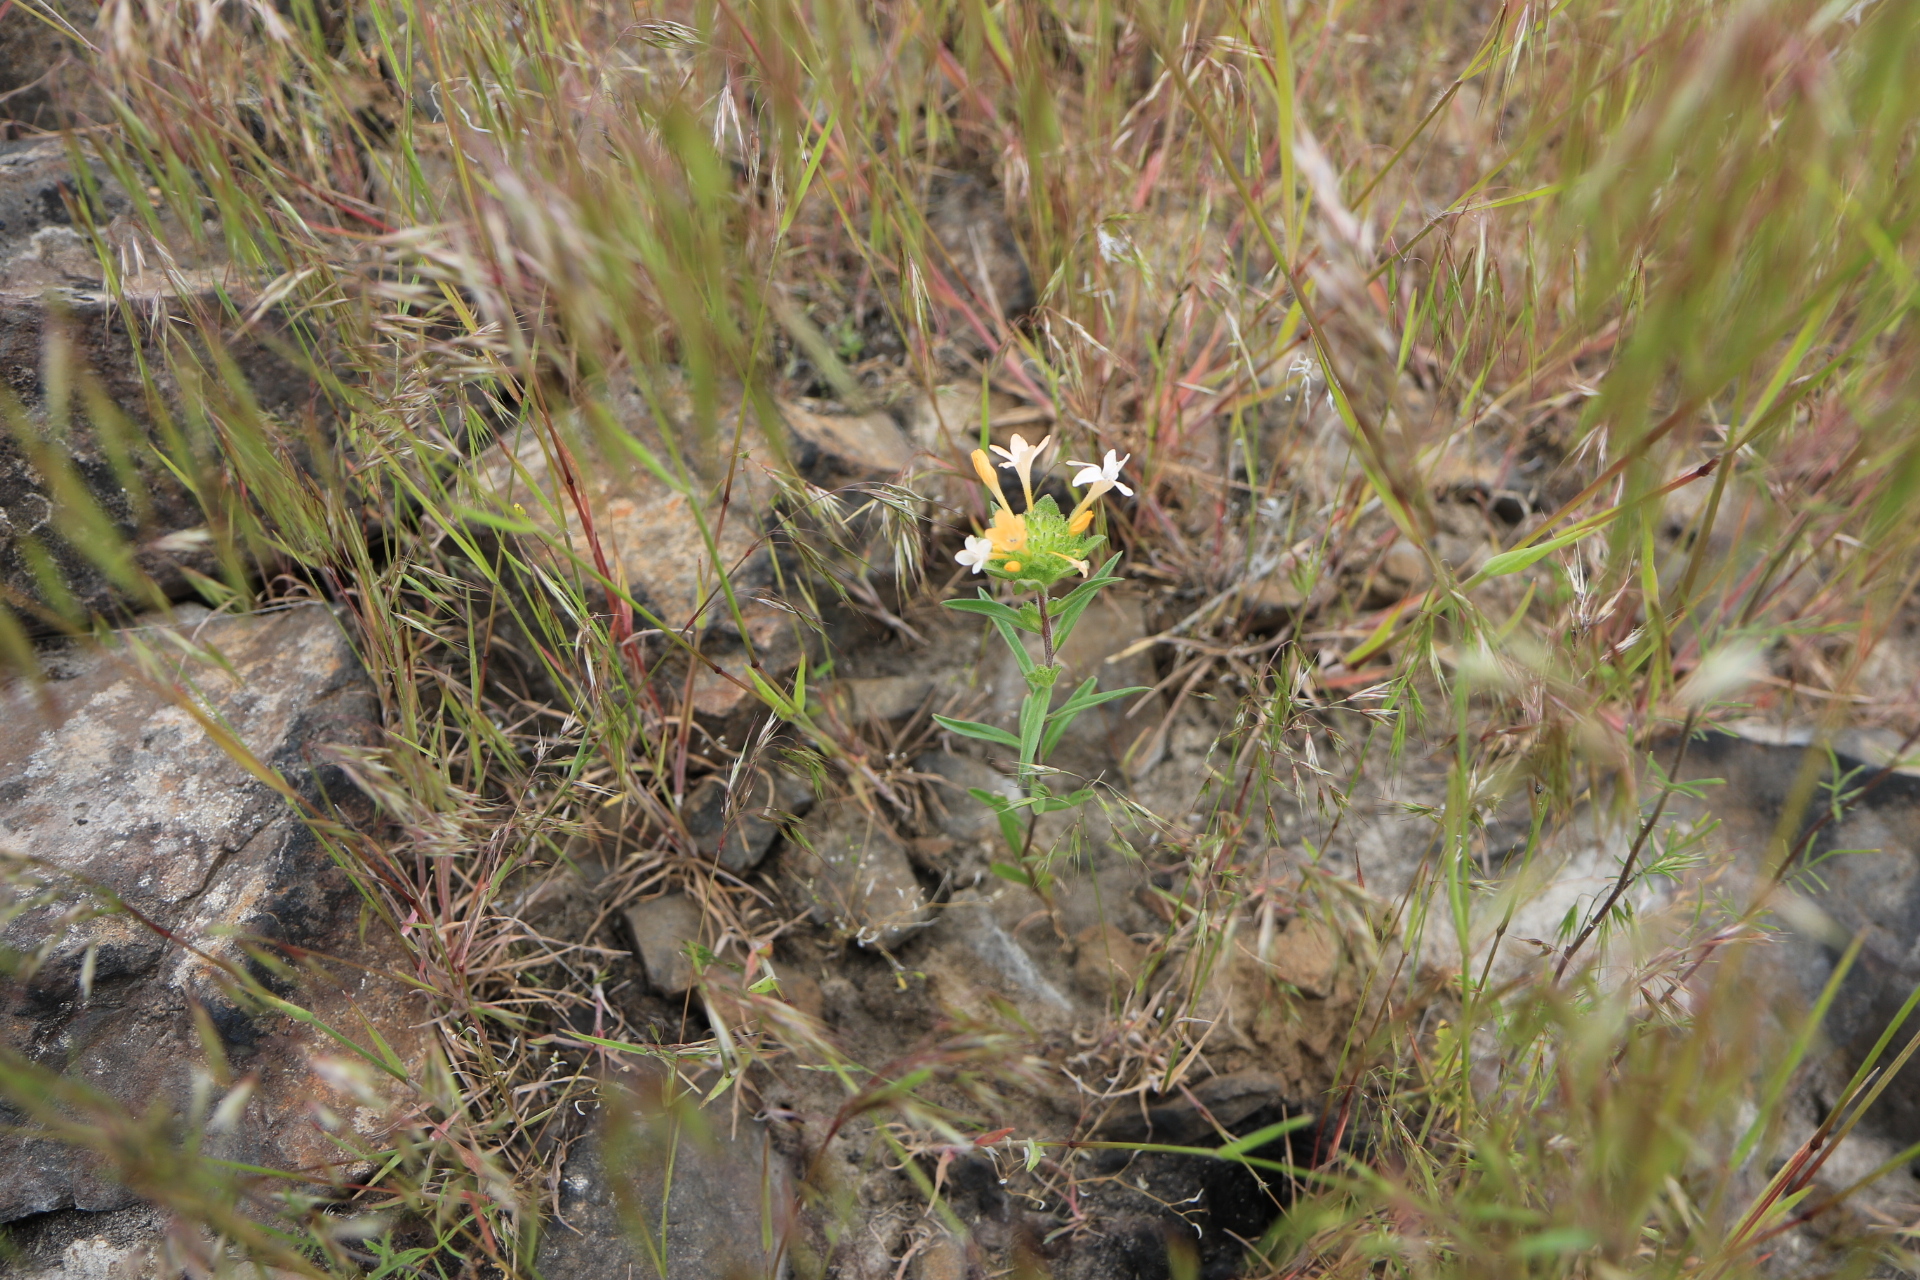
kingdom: Plantae
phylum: Tracheophyta
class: Magnoliopsida
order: Ericales
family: Polemoniaceae
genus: Collomia
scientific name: Collomia grandiflora
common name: California strawflower
